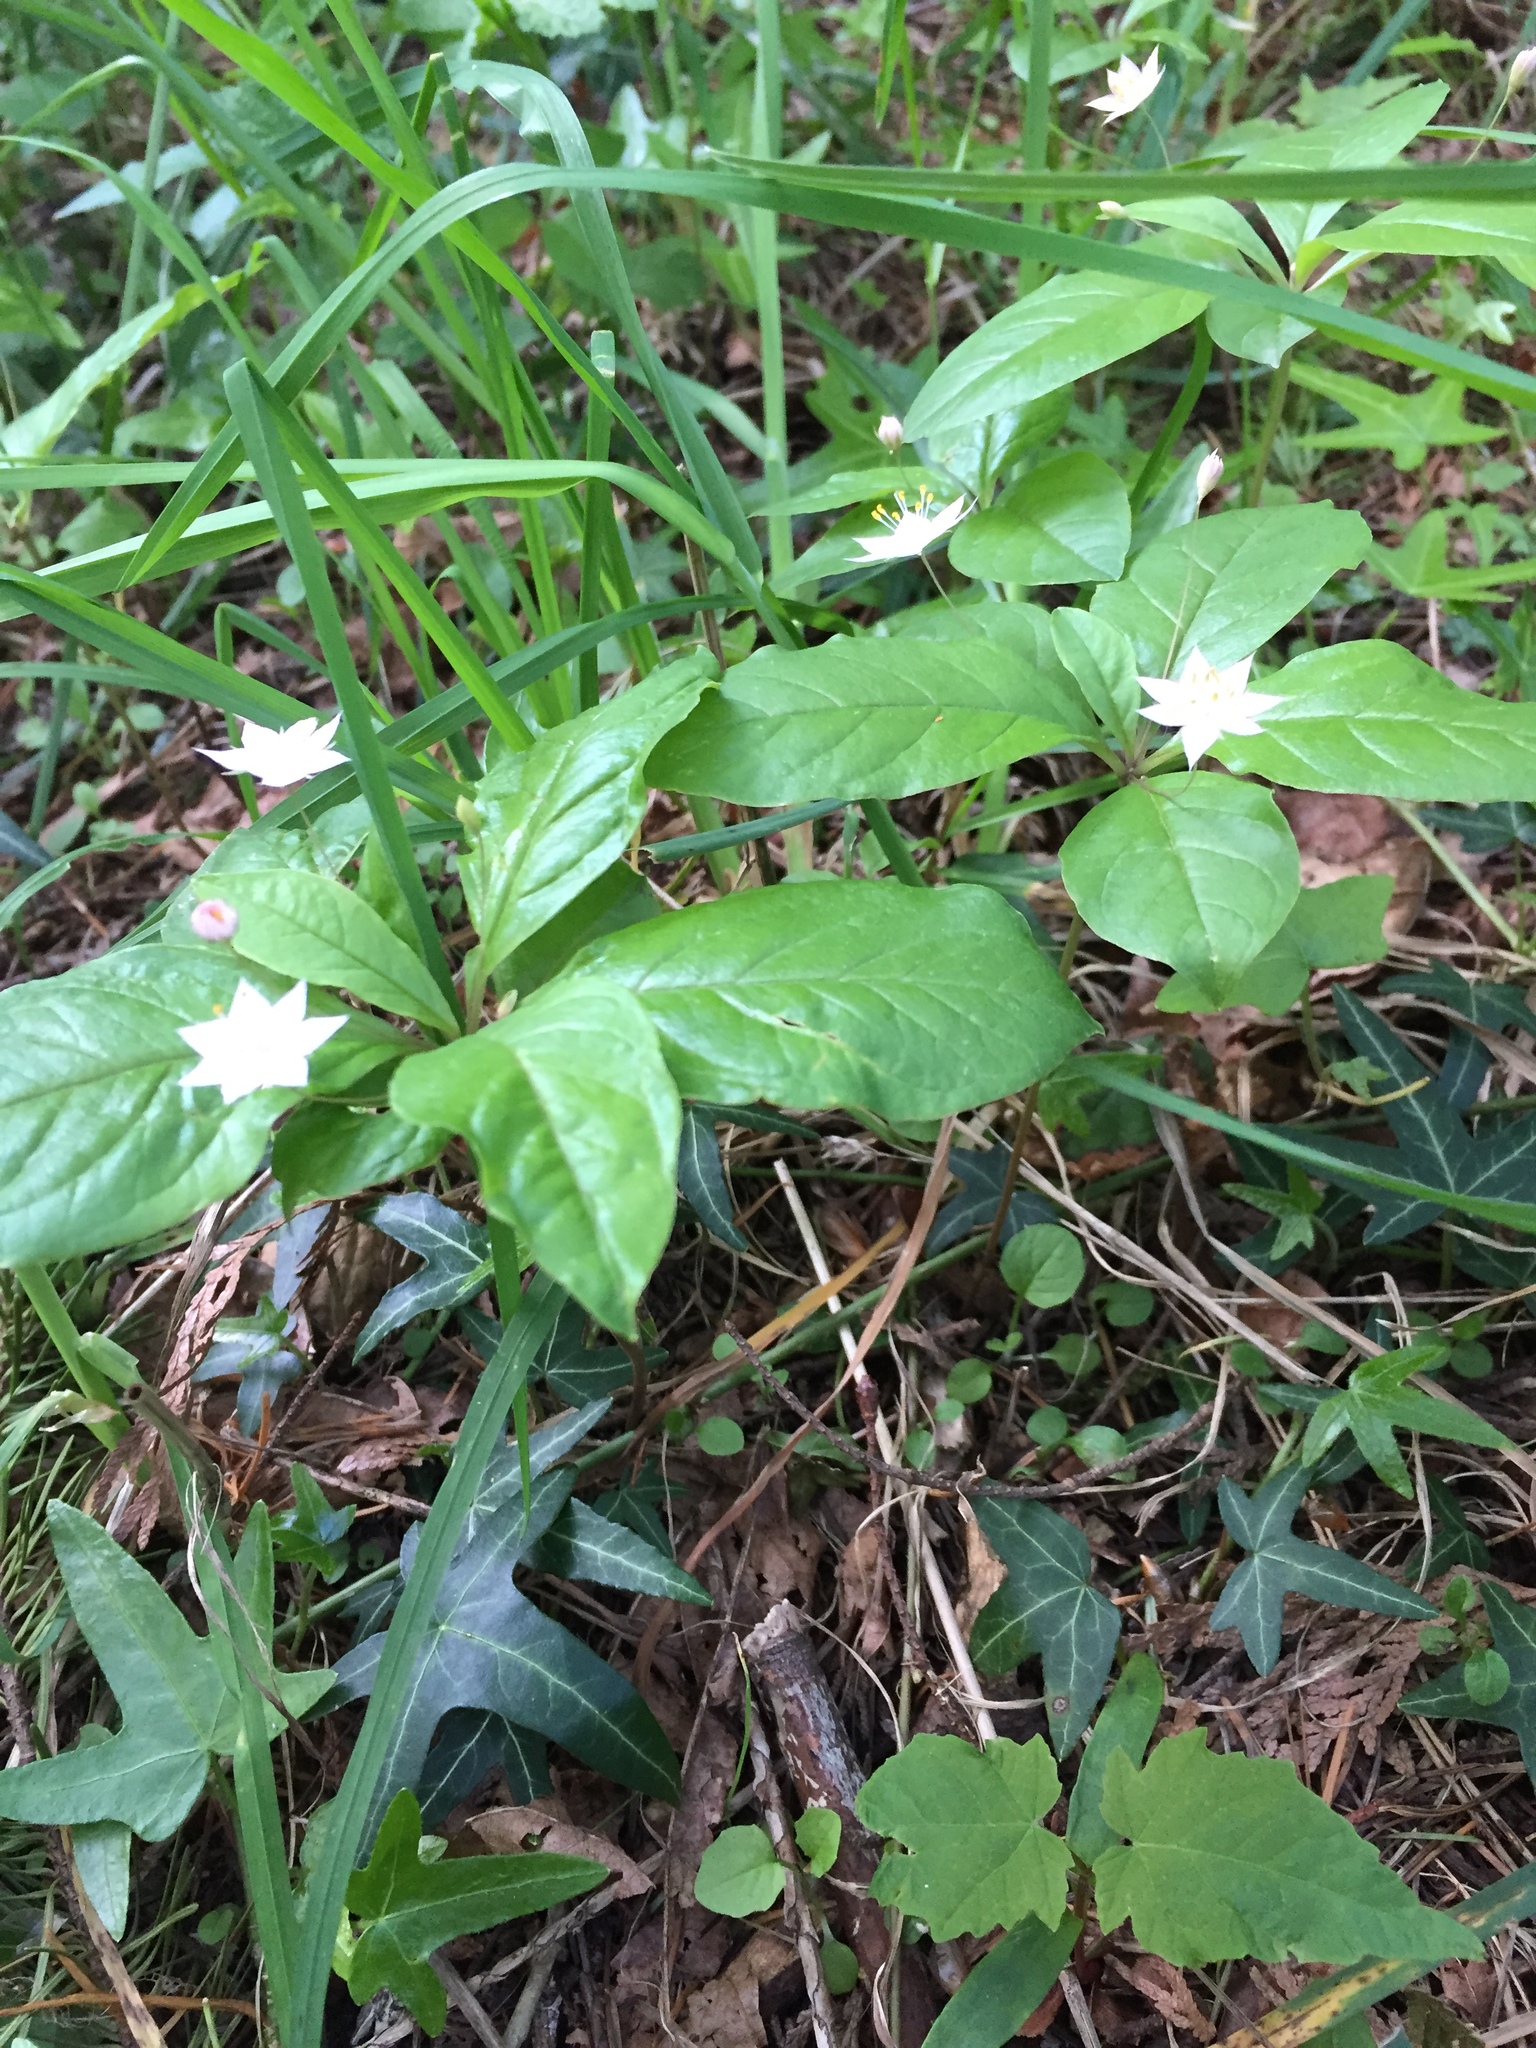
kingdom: Plantae
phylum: Tracheophyta
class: Magnoliopsida
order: Ericales
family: Primulaceae
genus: Lysimachia
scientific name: Lysimachia latifolia
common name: Pacific starflower
